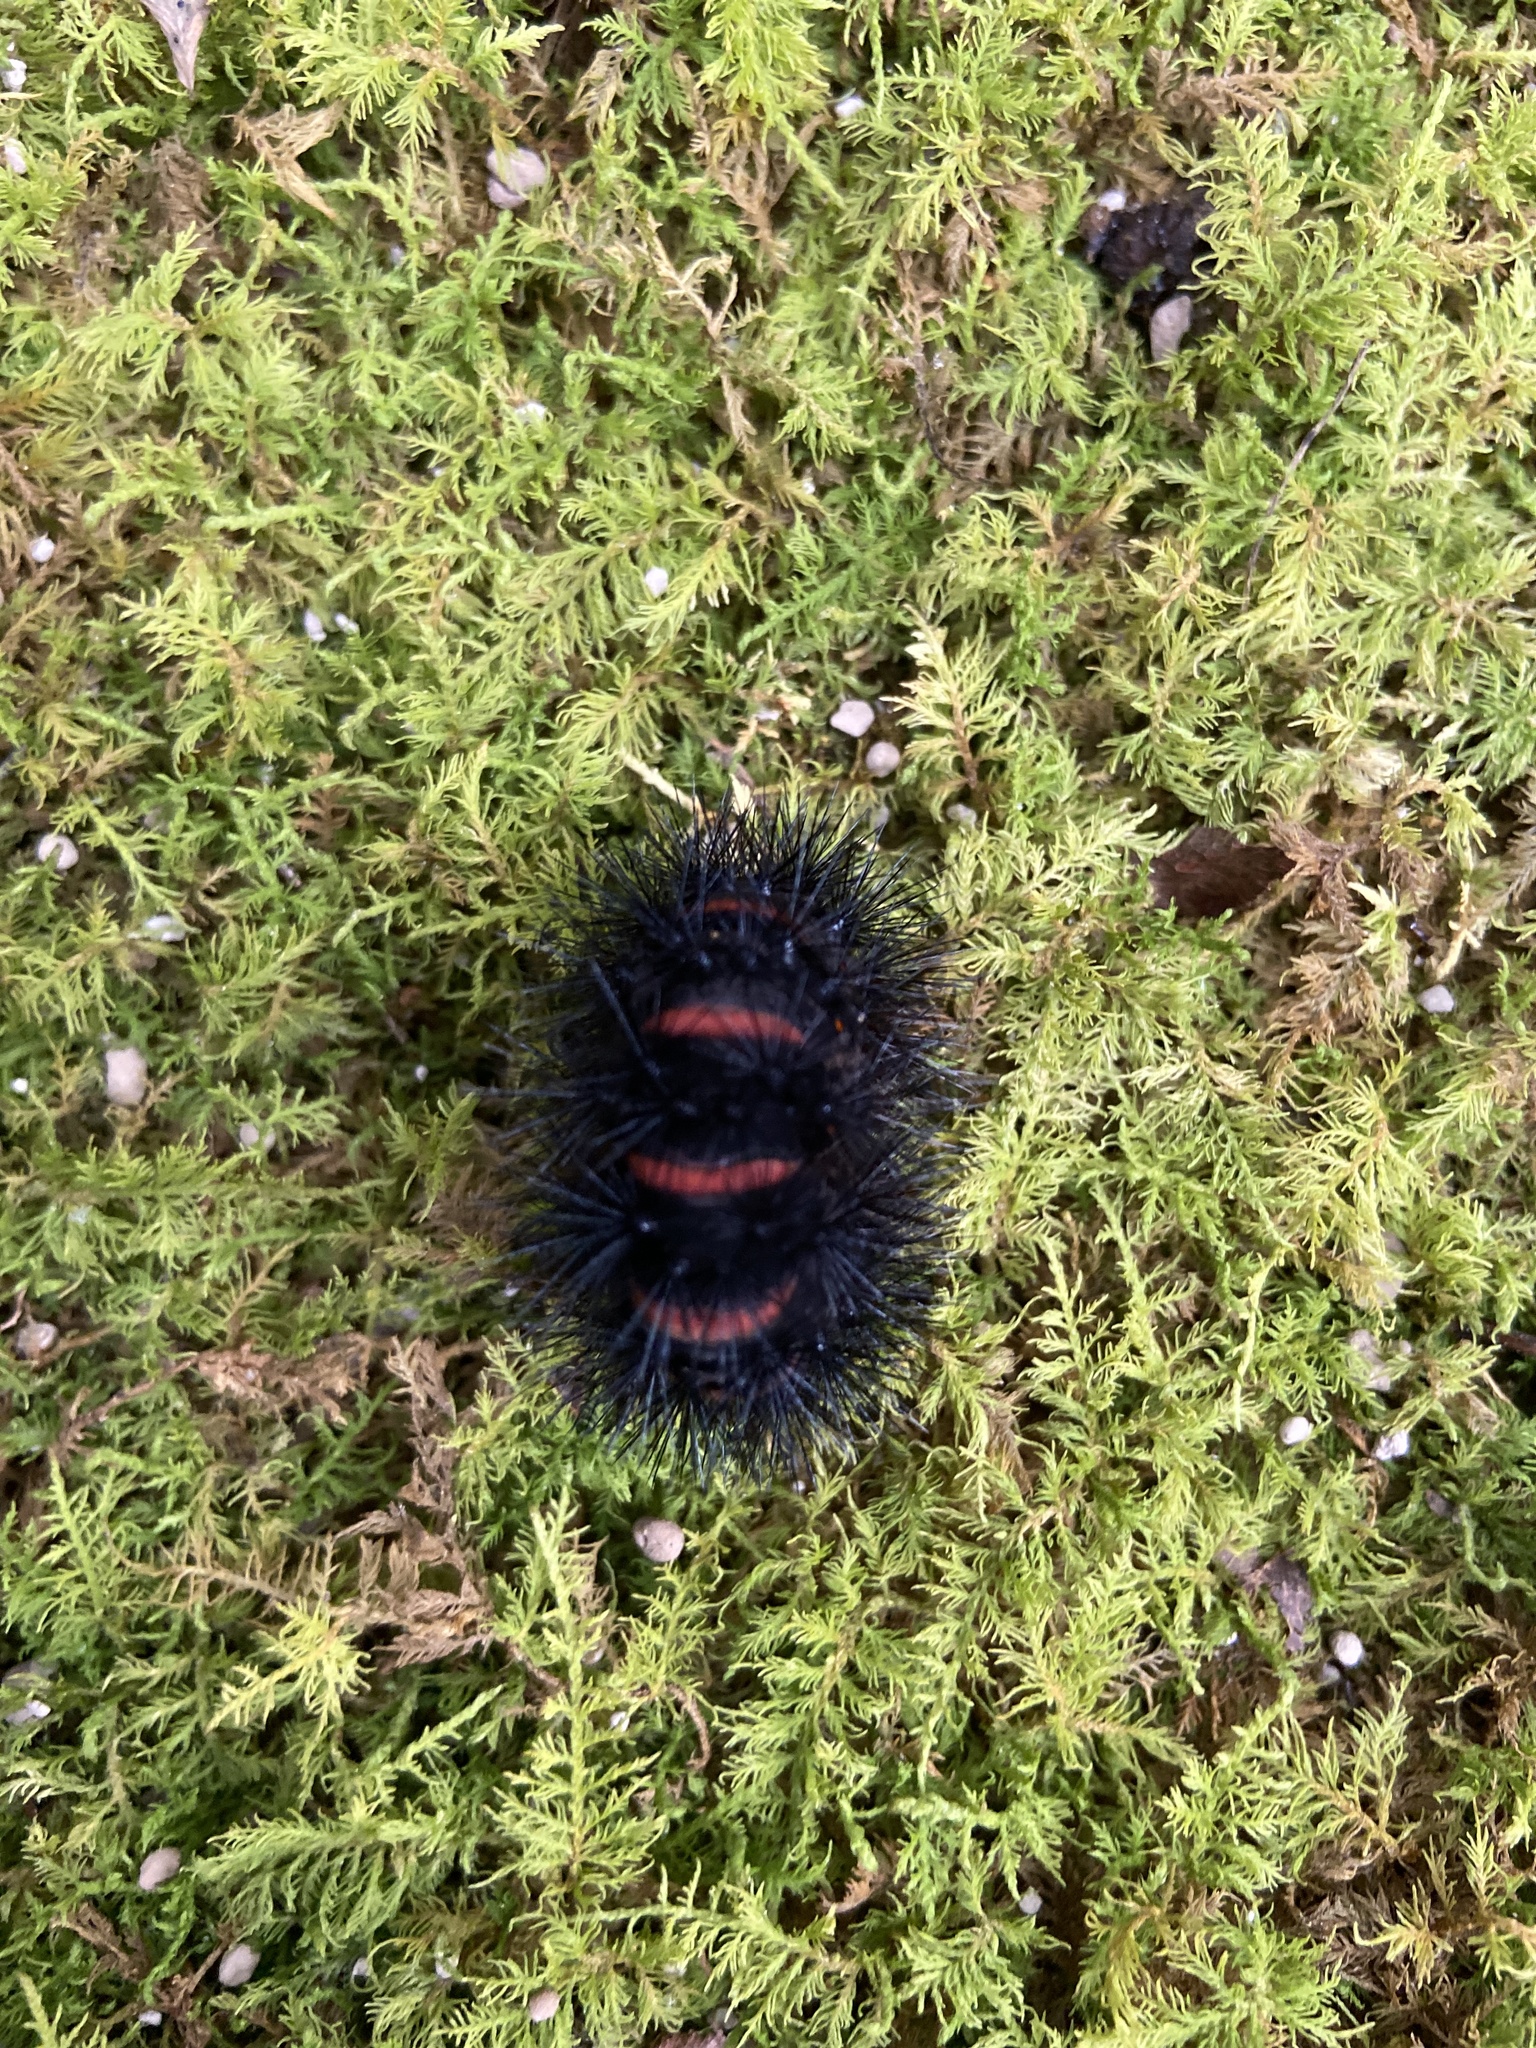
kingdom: Animalia
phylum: Arthropoda
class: Insecta
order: Lepidoptera
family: Erebidae
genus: Hypercompe
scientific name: Hypercompe scribonia
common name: Giant leopard moth
